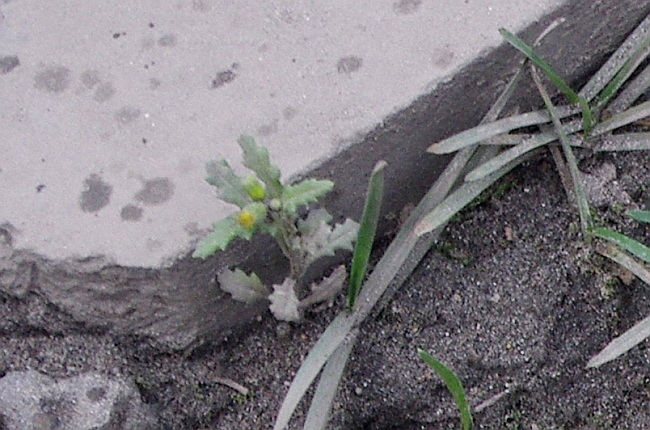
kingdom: Plantae
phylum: Tracheophyta
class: Magnoliopsida
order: Asterales
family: Asteraceae
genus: Senecio
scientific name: Senecio vulgaris
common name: Old-man-in-the-spring
